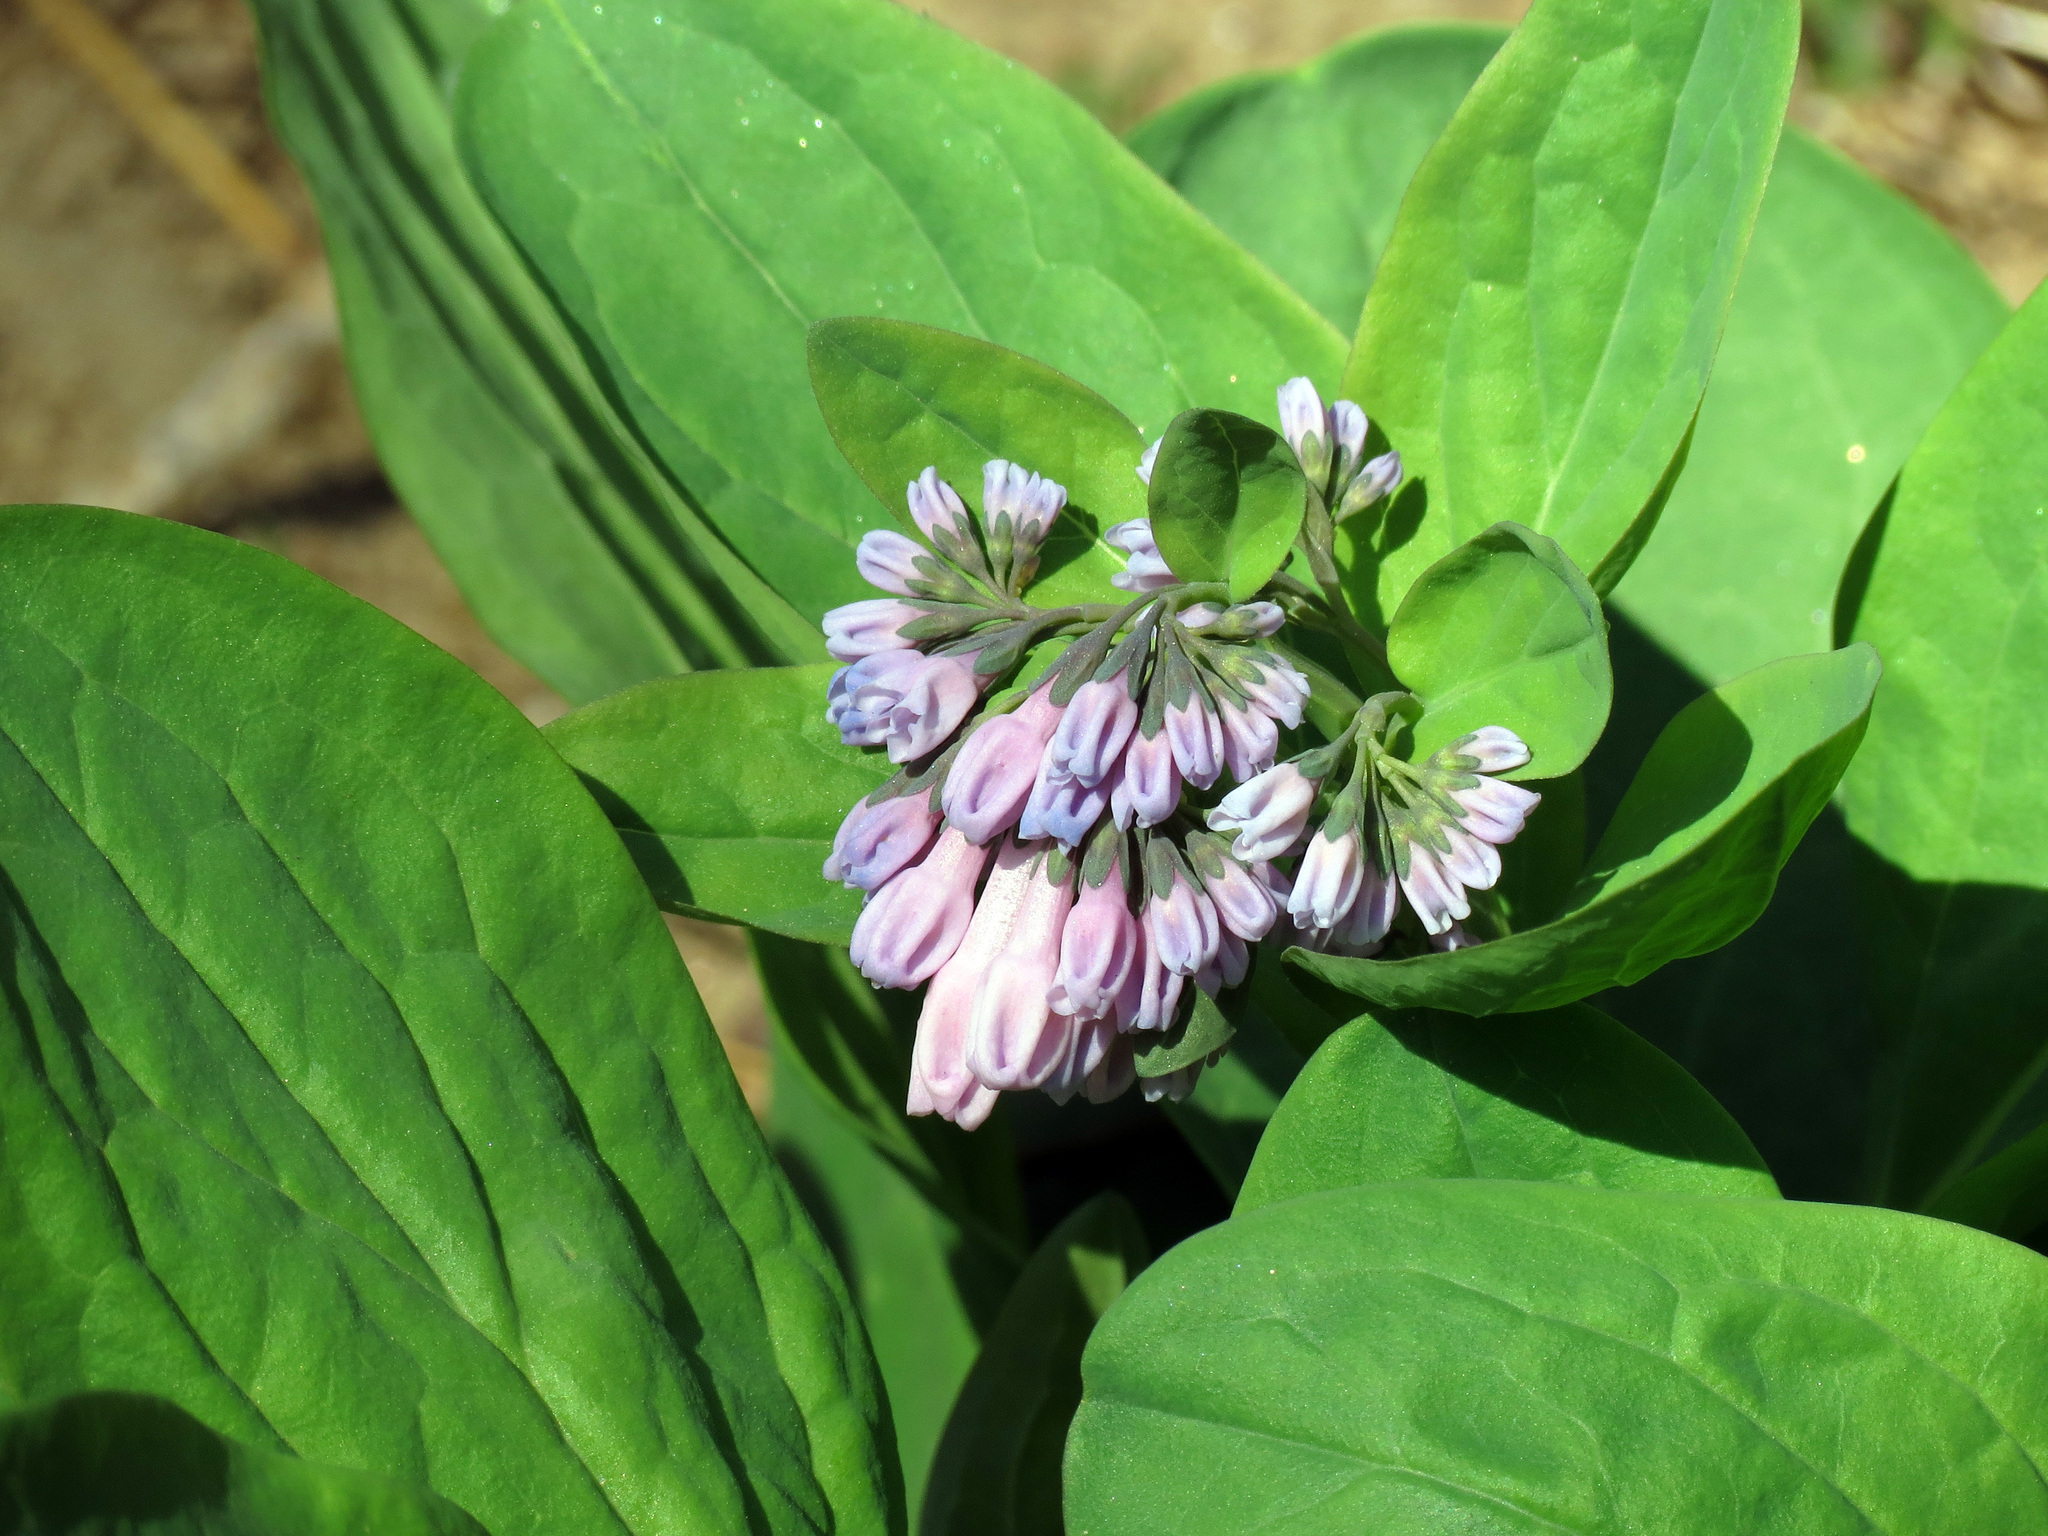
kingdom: Plantae
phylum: Tracheophyta
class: Magnoliopsida
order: Boraginales
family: Boraginaceae
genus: Mertensia
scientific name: Mertensia virginica
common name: Virginia bluebells
